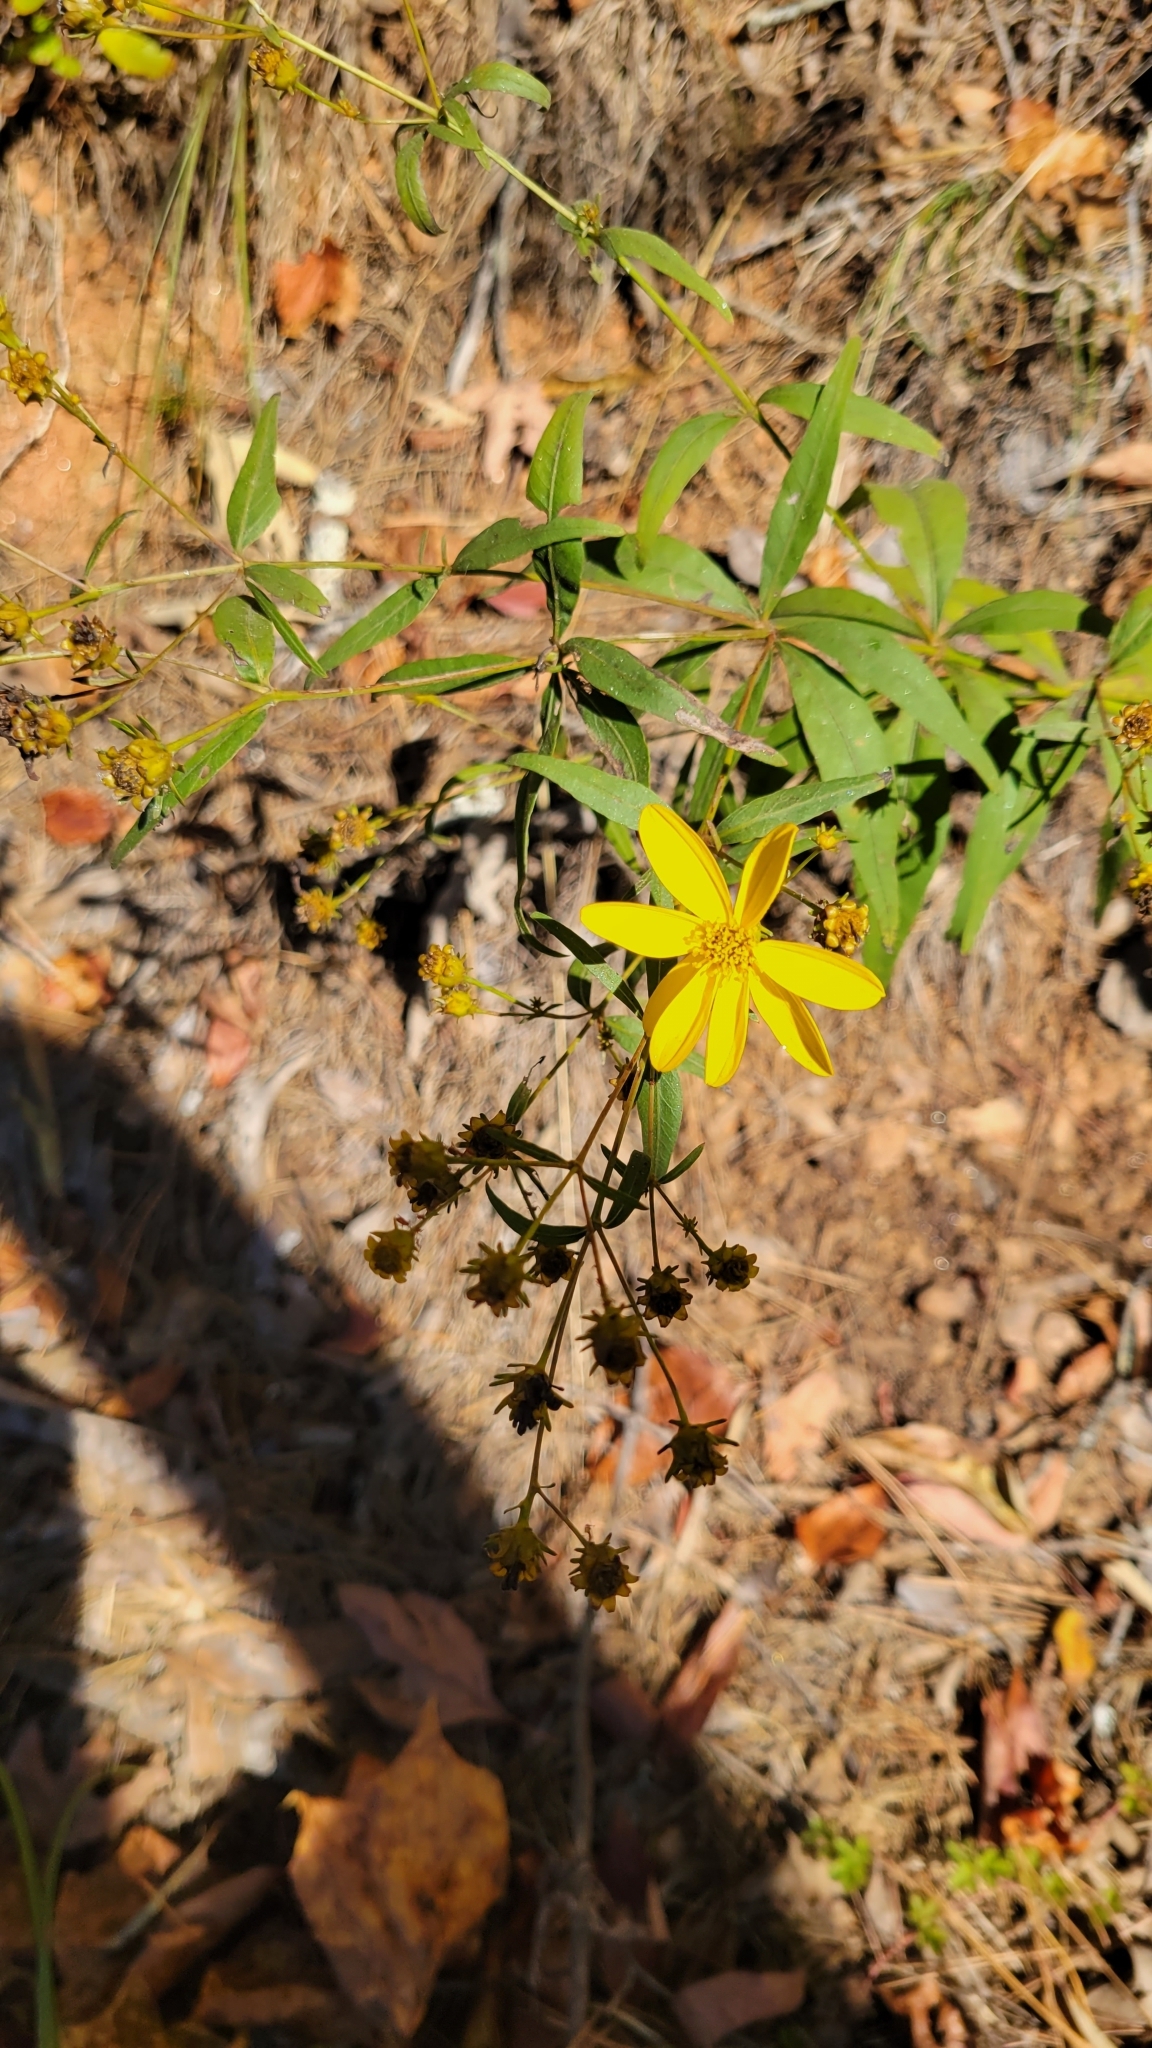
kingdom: Plantae
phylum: Tracheophyta
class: Magnoliopsida
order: Asterales
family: Asteraceae
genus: Coreopsis
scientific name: Coreopsis major
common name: Forest tickseed
